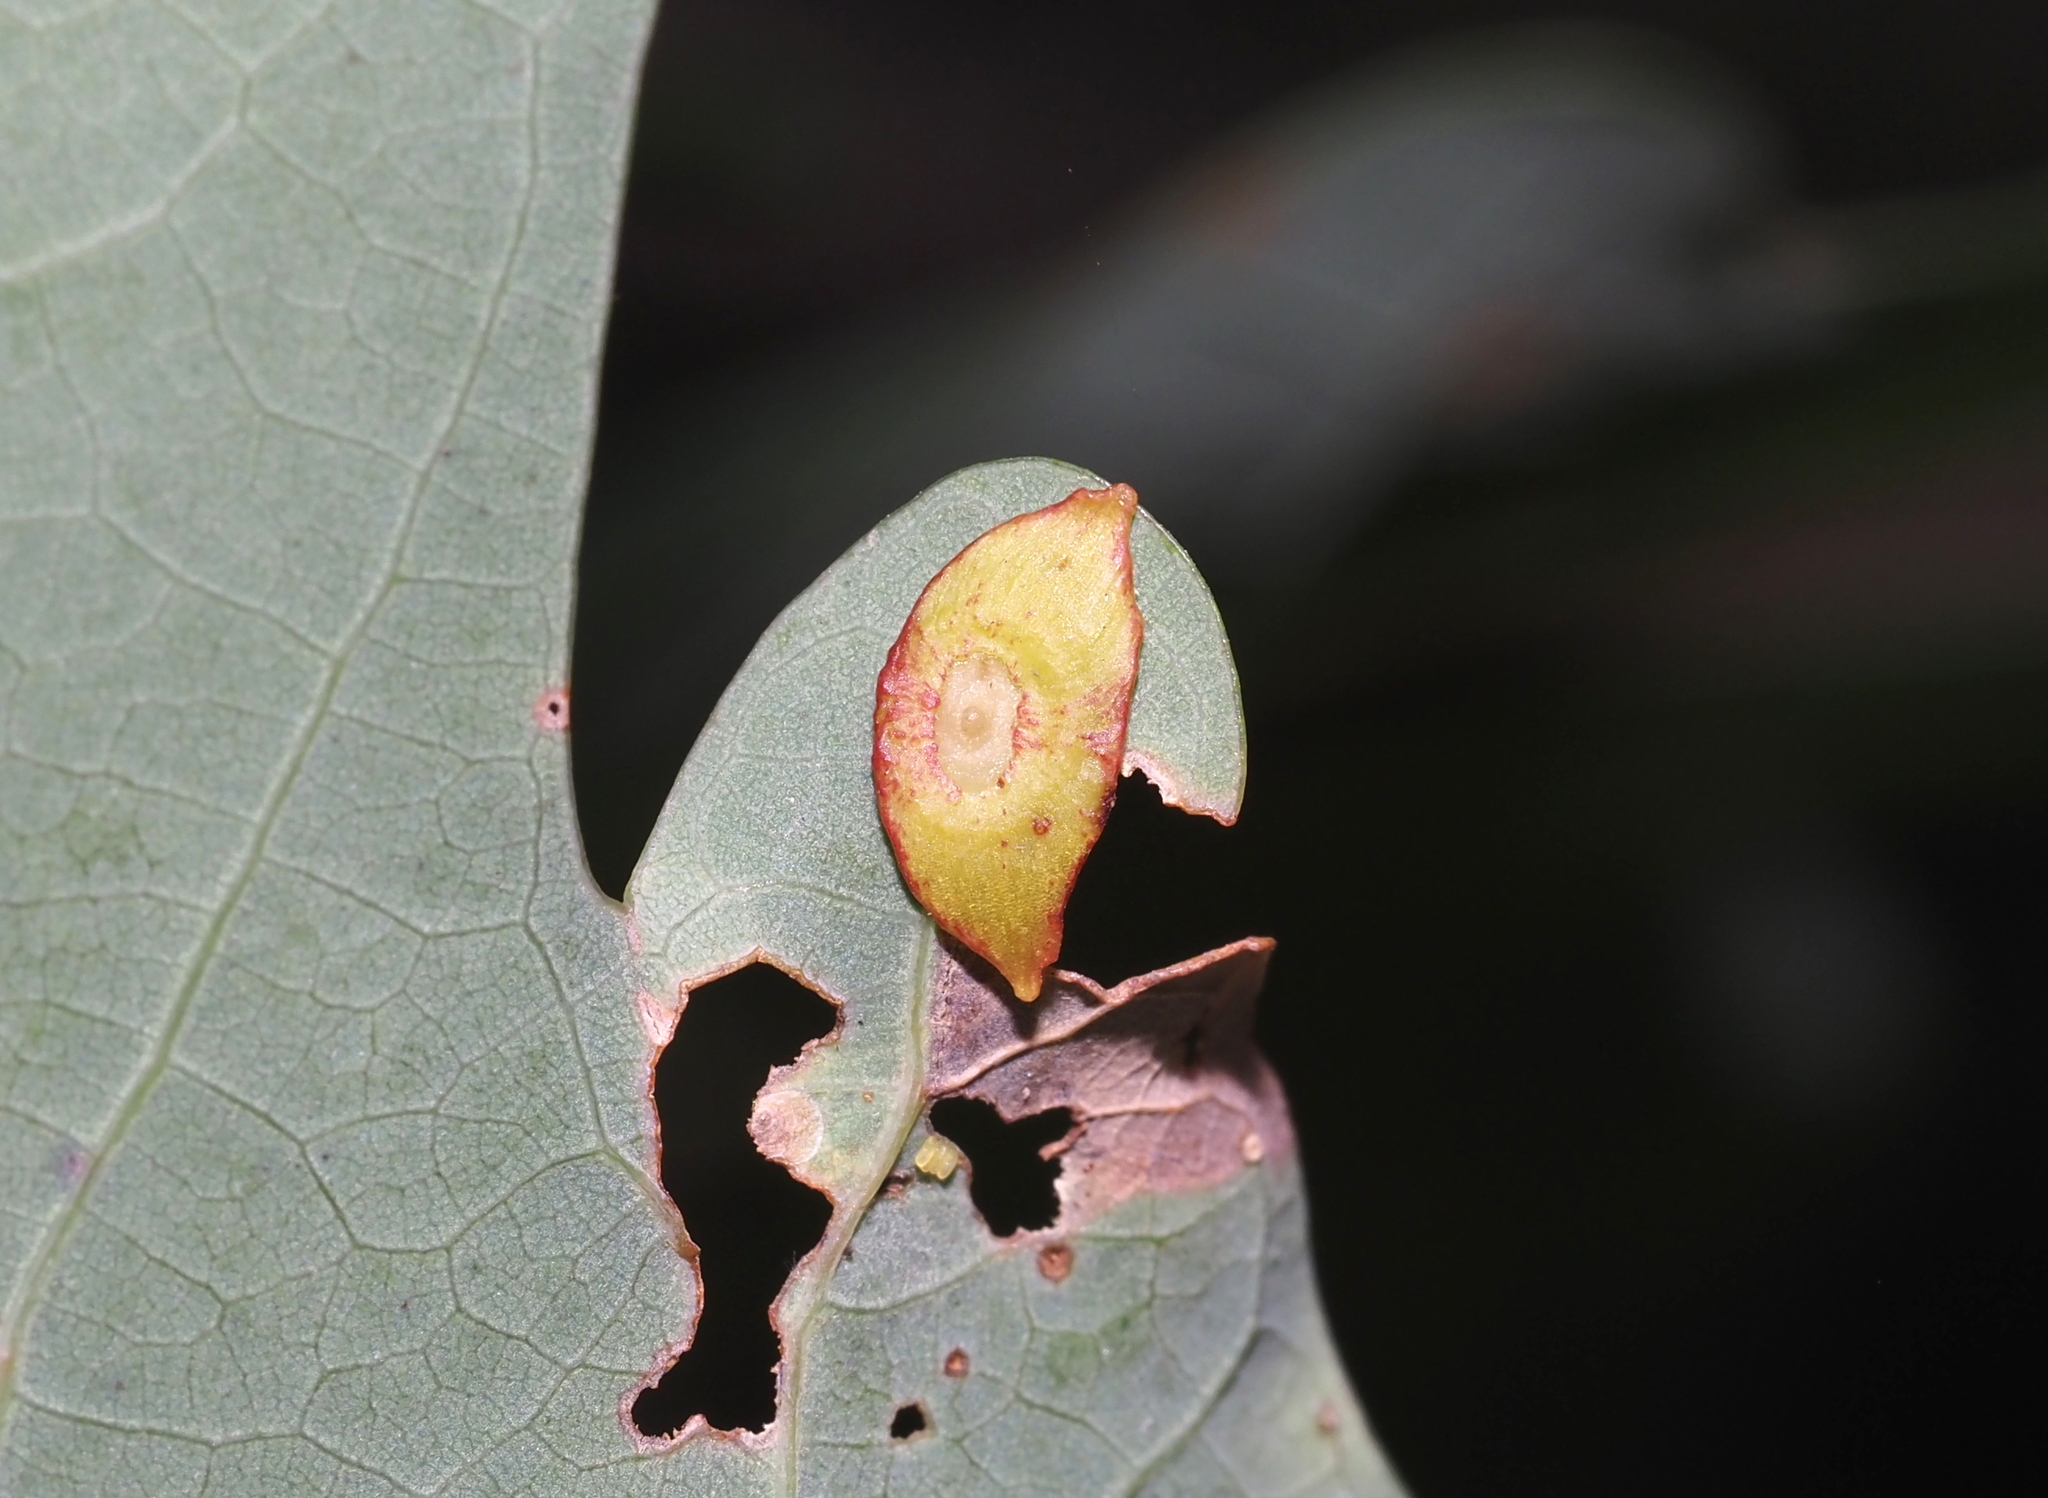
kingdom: Animalia
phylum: Arthropoda
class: Insecta
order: Hymenoptera
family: Cynipidae
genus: Phylloteras
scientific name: Phylloteras
